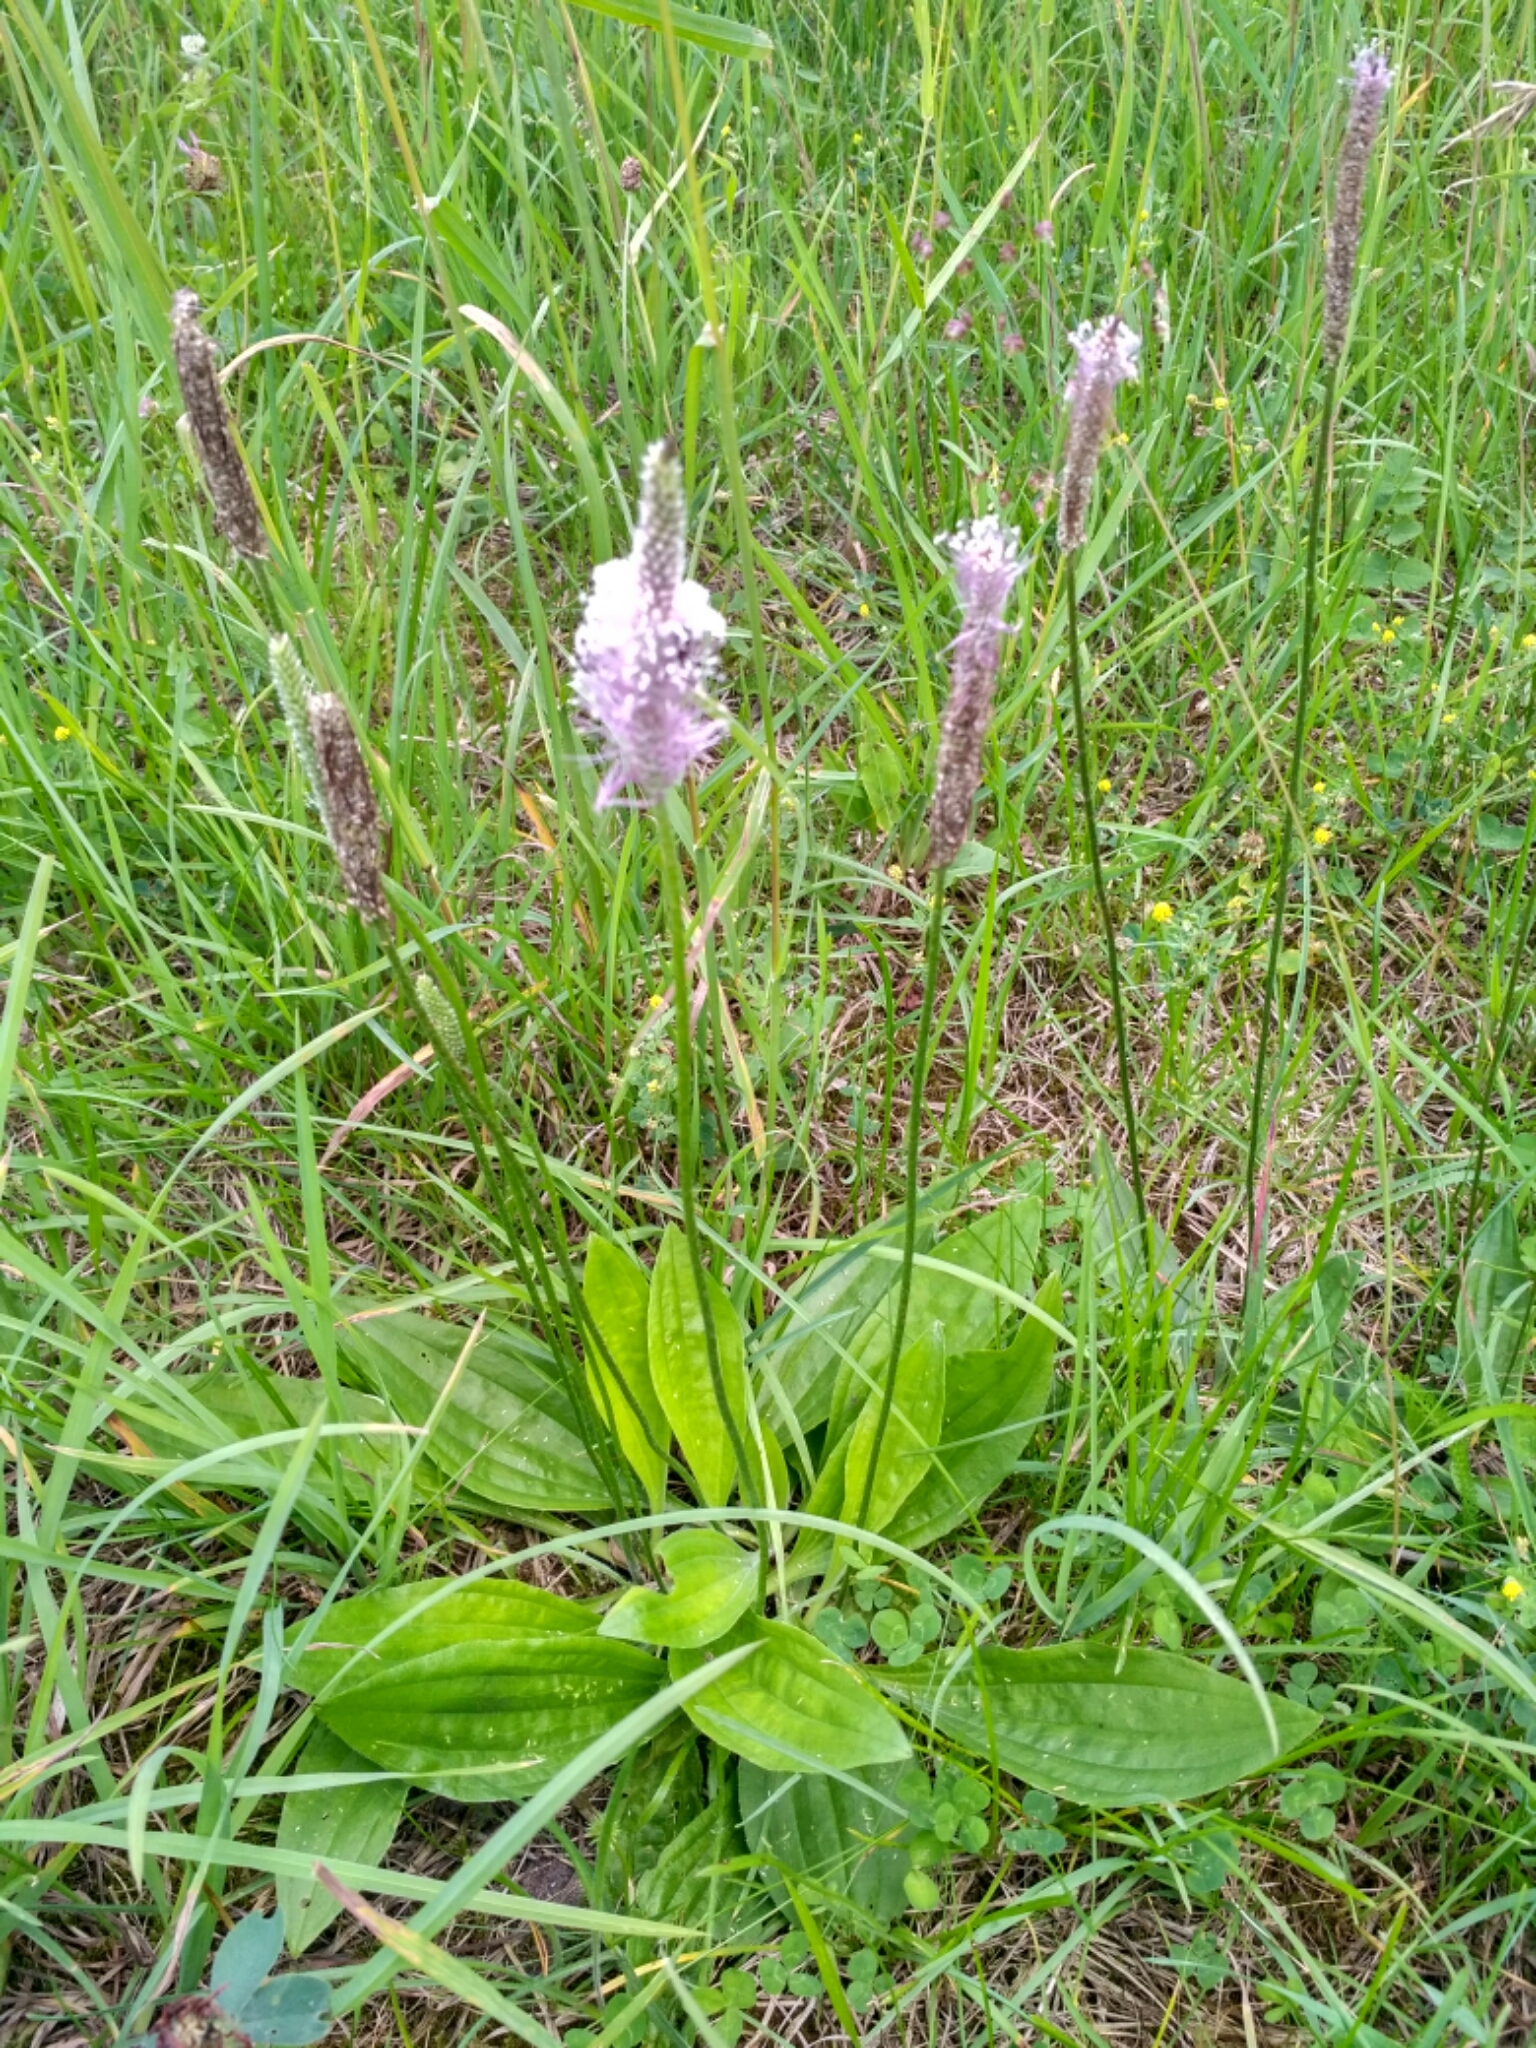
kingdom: Plantae
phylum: Tracheophyta
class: Magnoliopsida
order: Lamiales
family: Plantaginaceae
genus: Plantago
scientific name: Plantago media
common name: Hoary plantain
